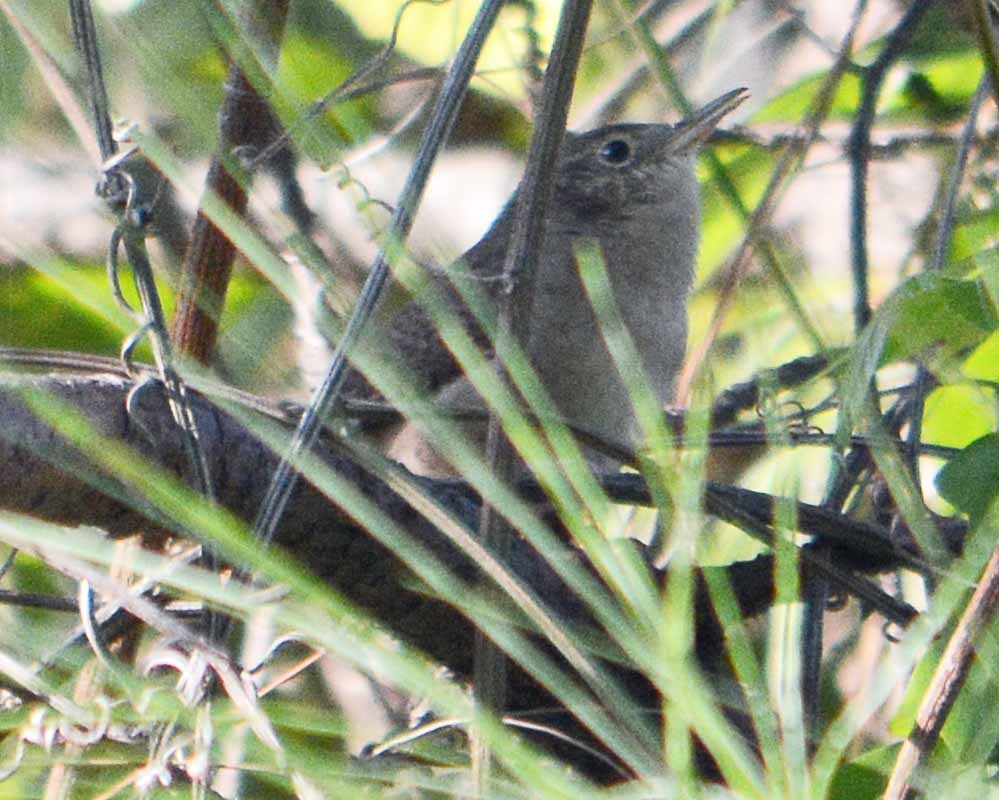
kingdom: Animalia
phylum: Chordata
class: Aves
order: Passeriformes
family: Troglodytidae
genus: Troglodytes
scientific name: Troglodytes aedon
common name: House wren
